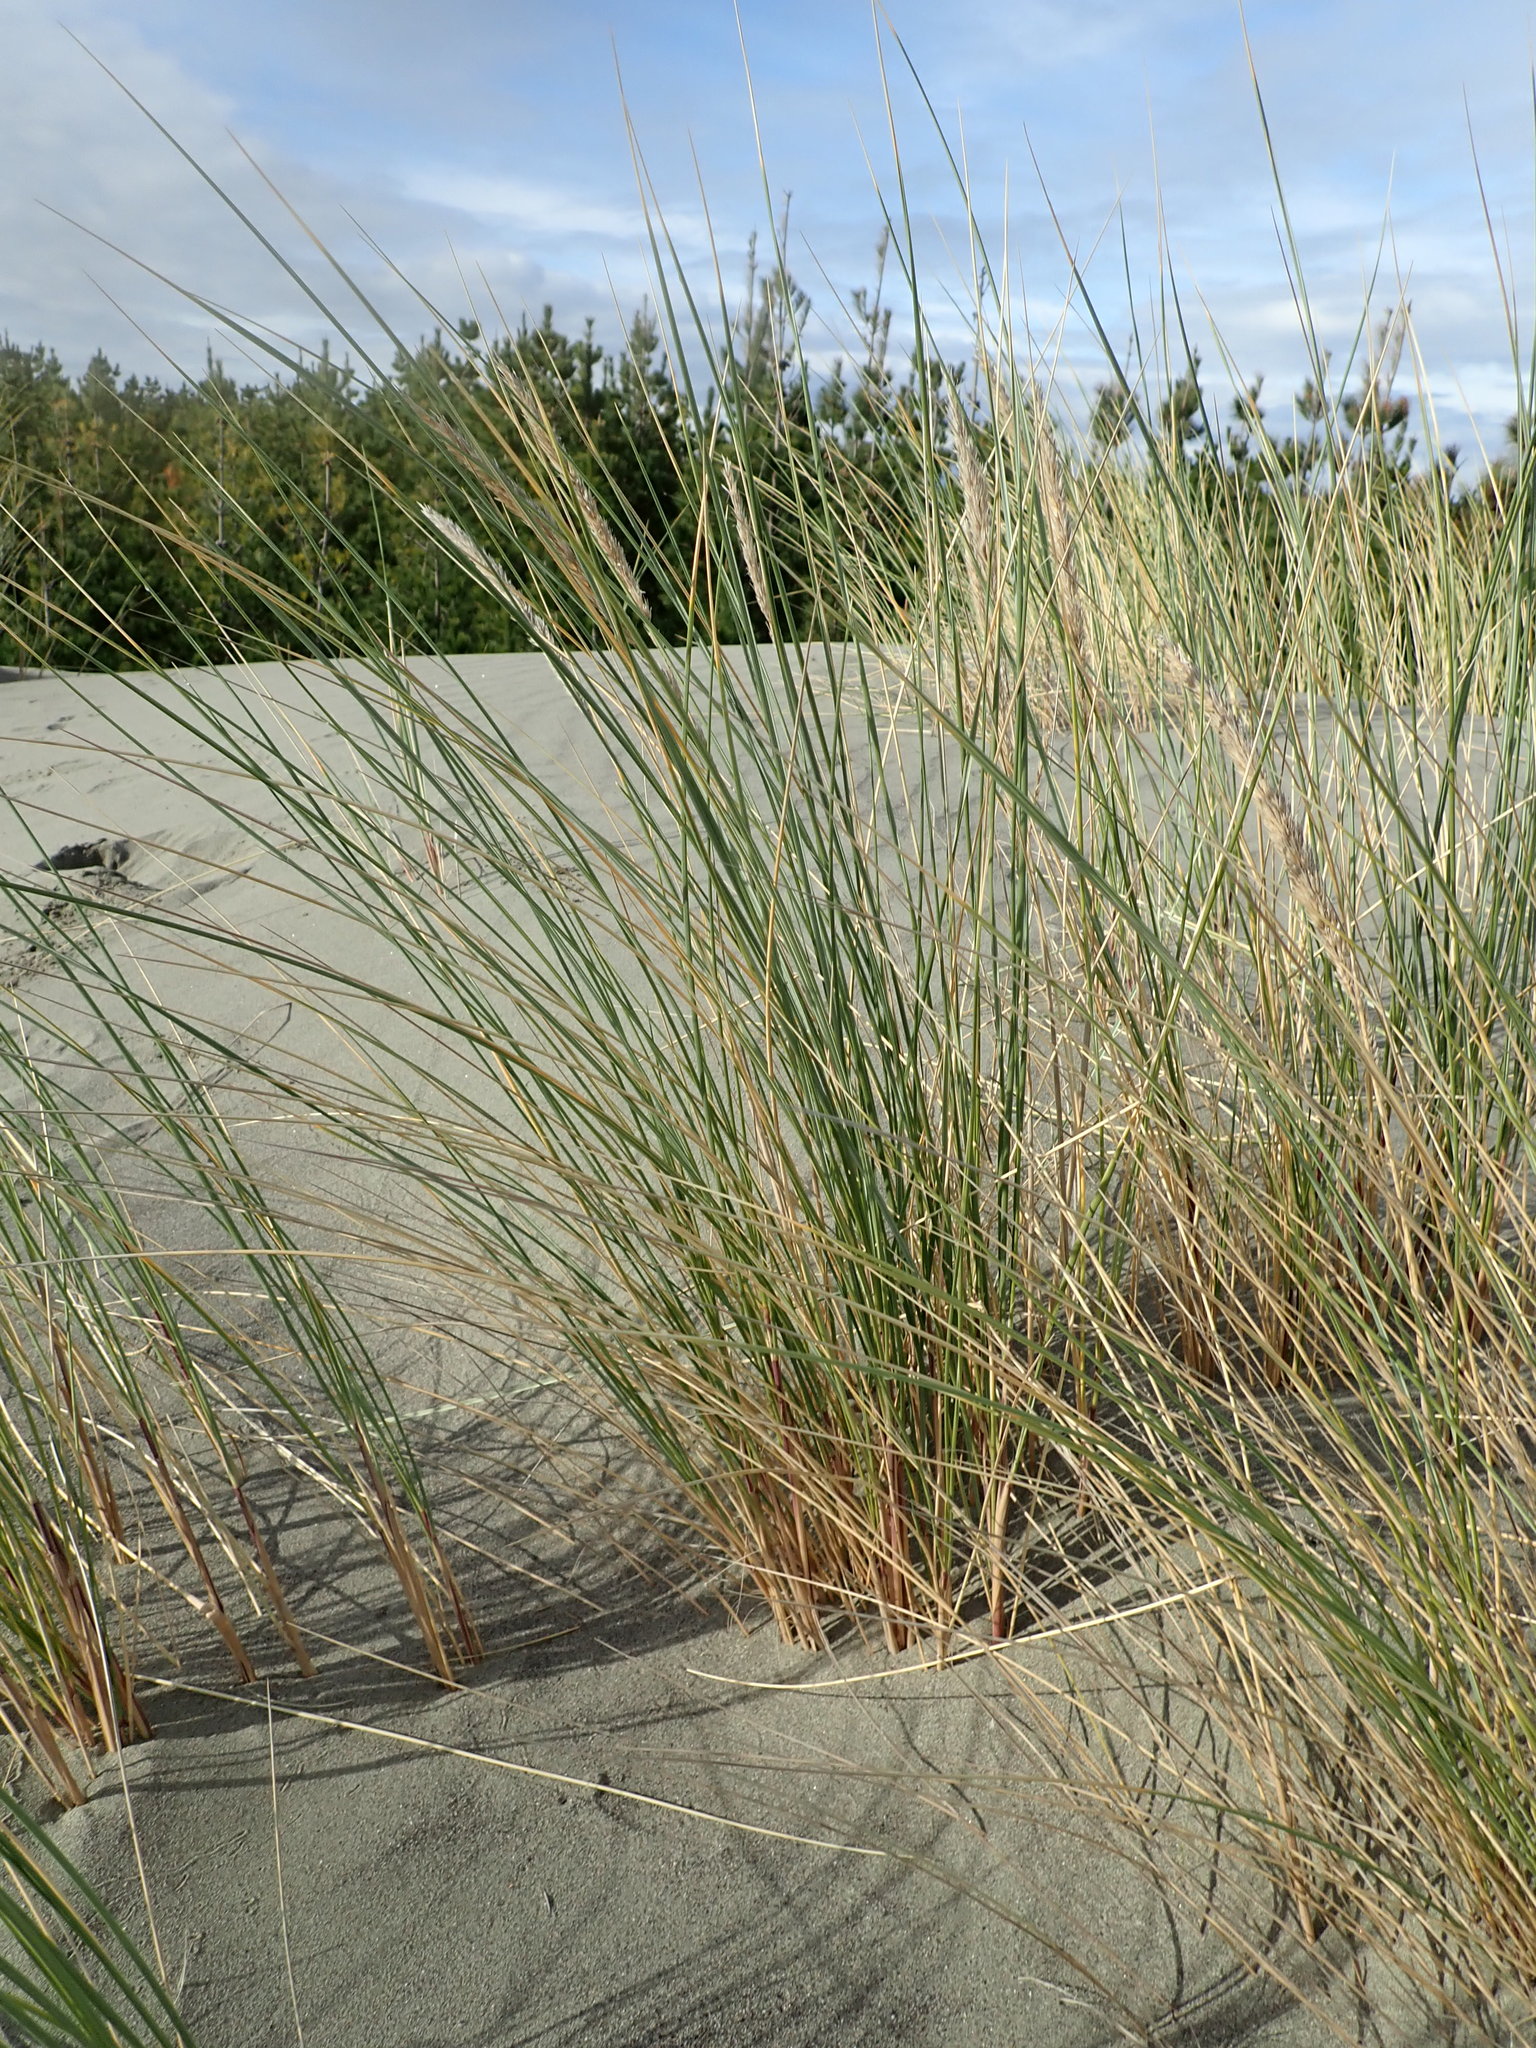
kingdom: Plantae
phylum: Tracheophyta
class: Liliopsida
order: Poales
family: Poaceae
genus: Calamagrostis
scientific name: Calamagrostis arenaria
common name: European beachgrass
